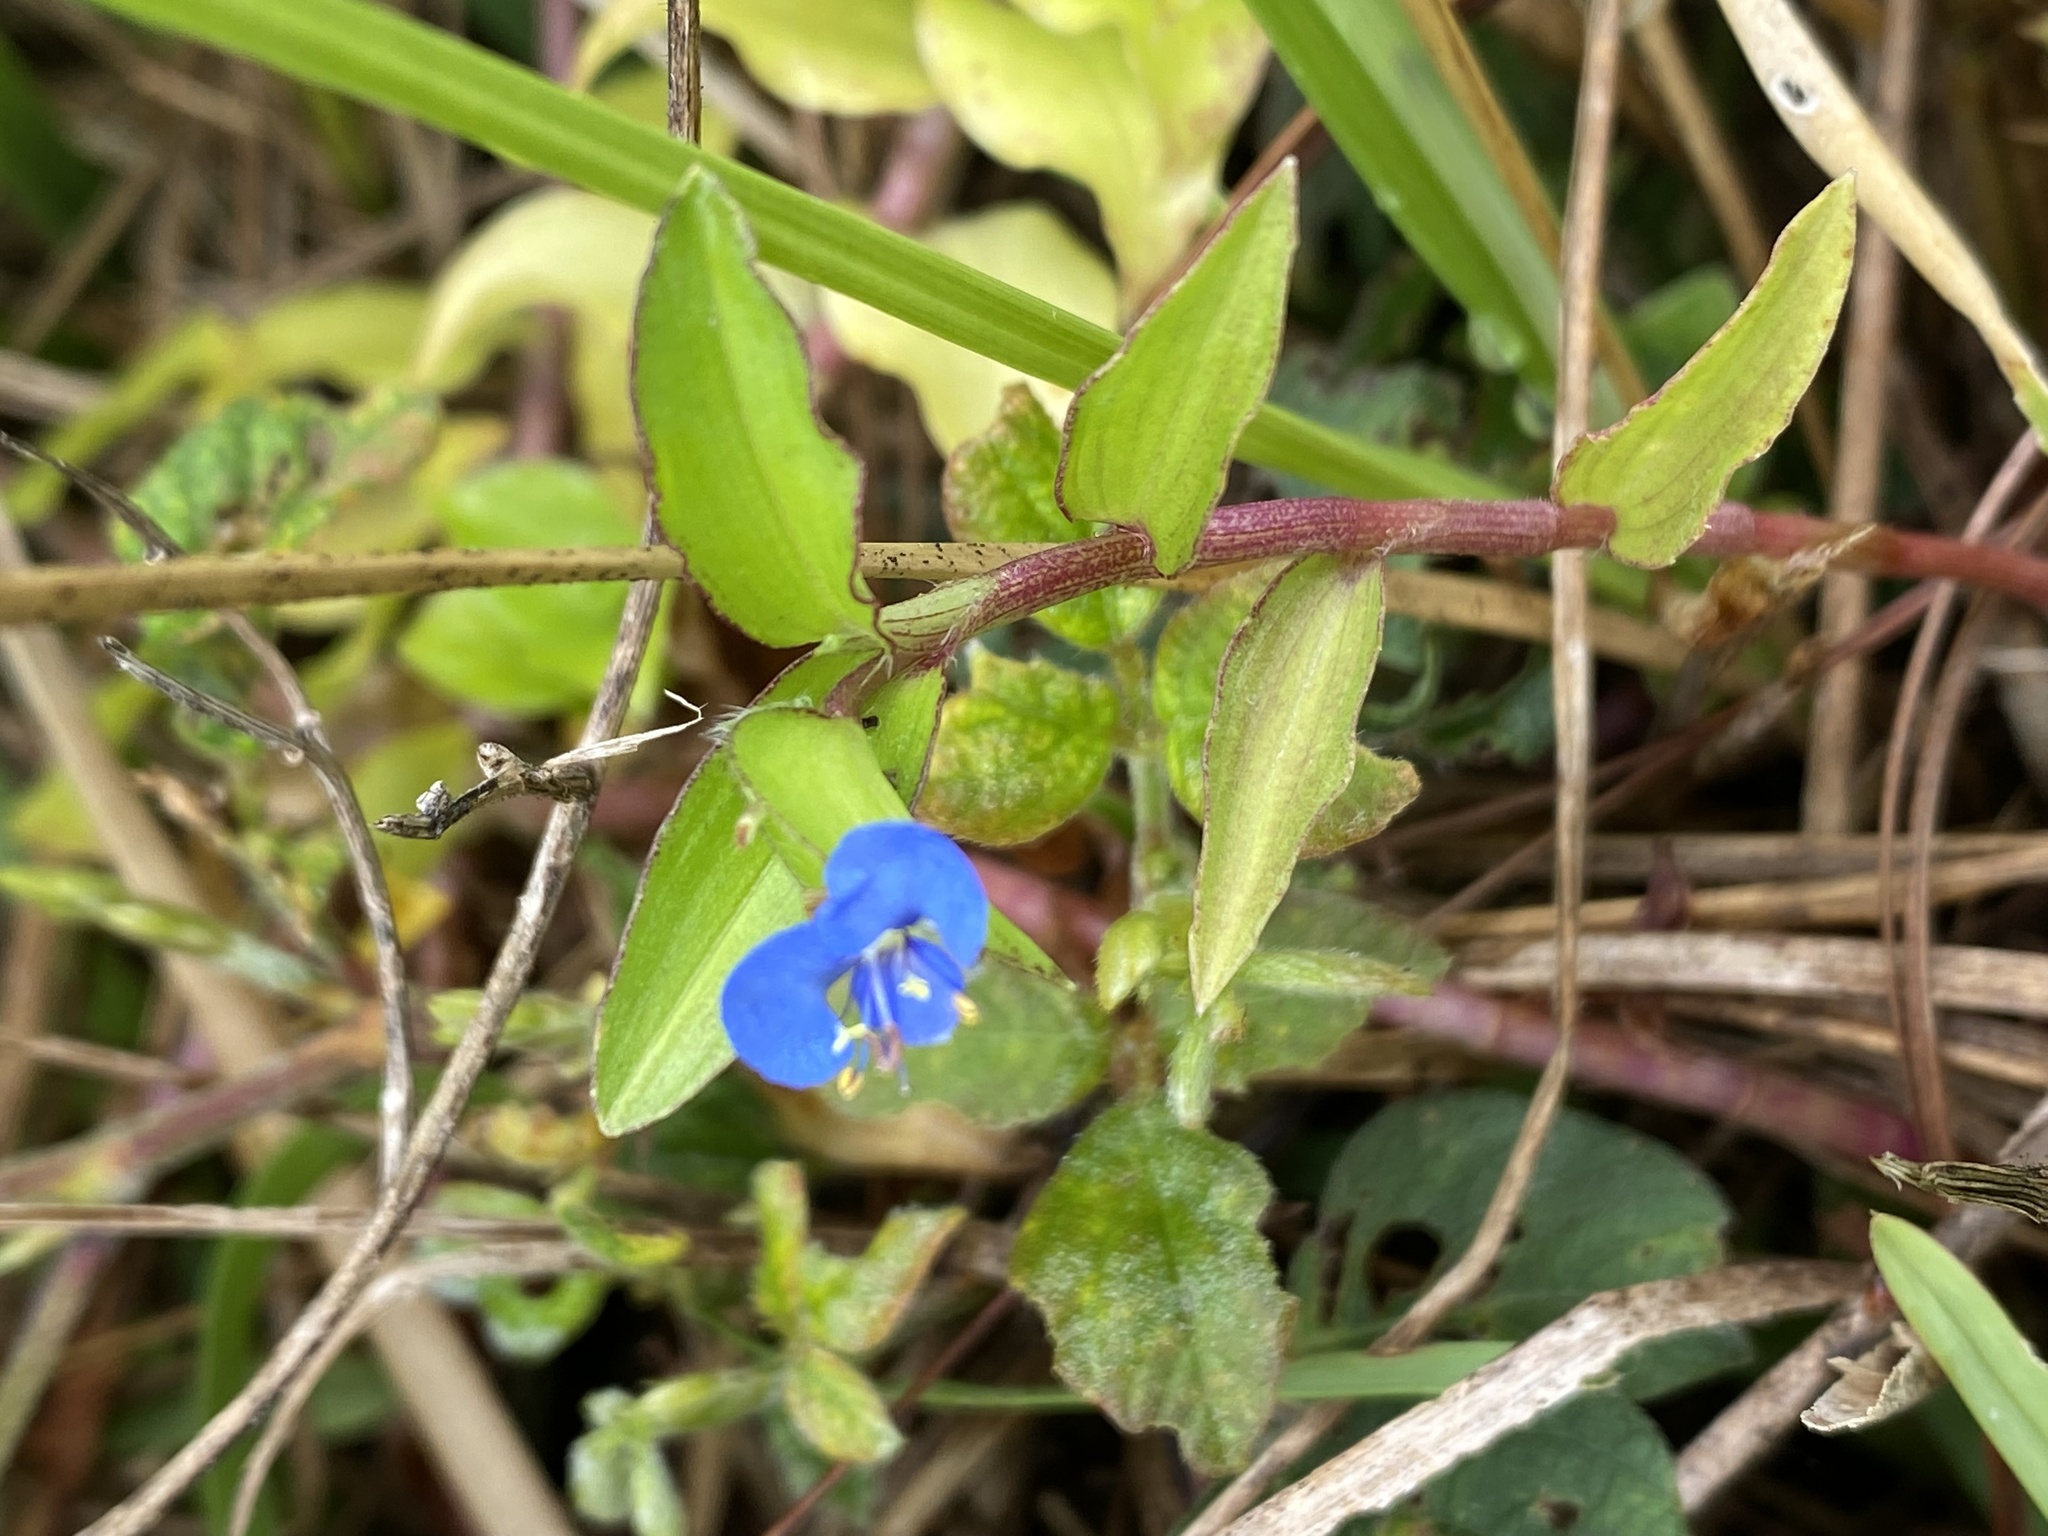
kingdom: Plantae
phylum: Tracheophyta
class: Liliopsida
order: Commelinales
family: Commelinaceae
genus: Commelina
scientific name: Commelina diffusa
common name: Climbing dayflower
